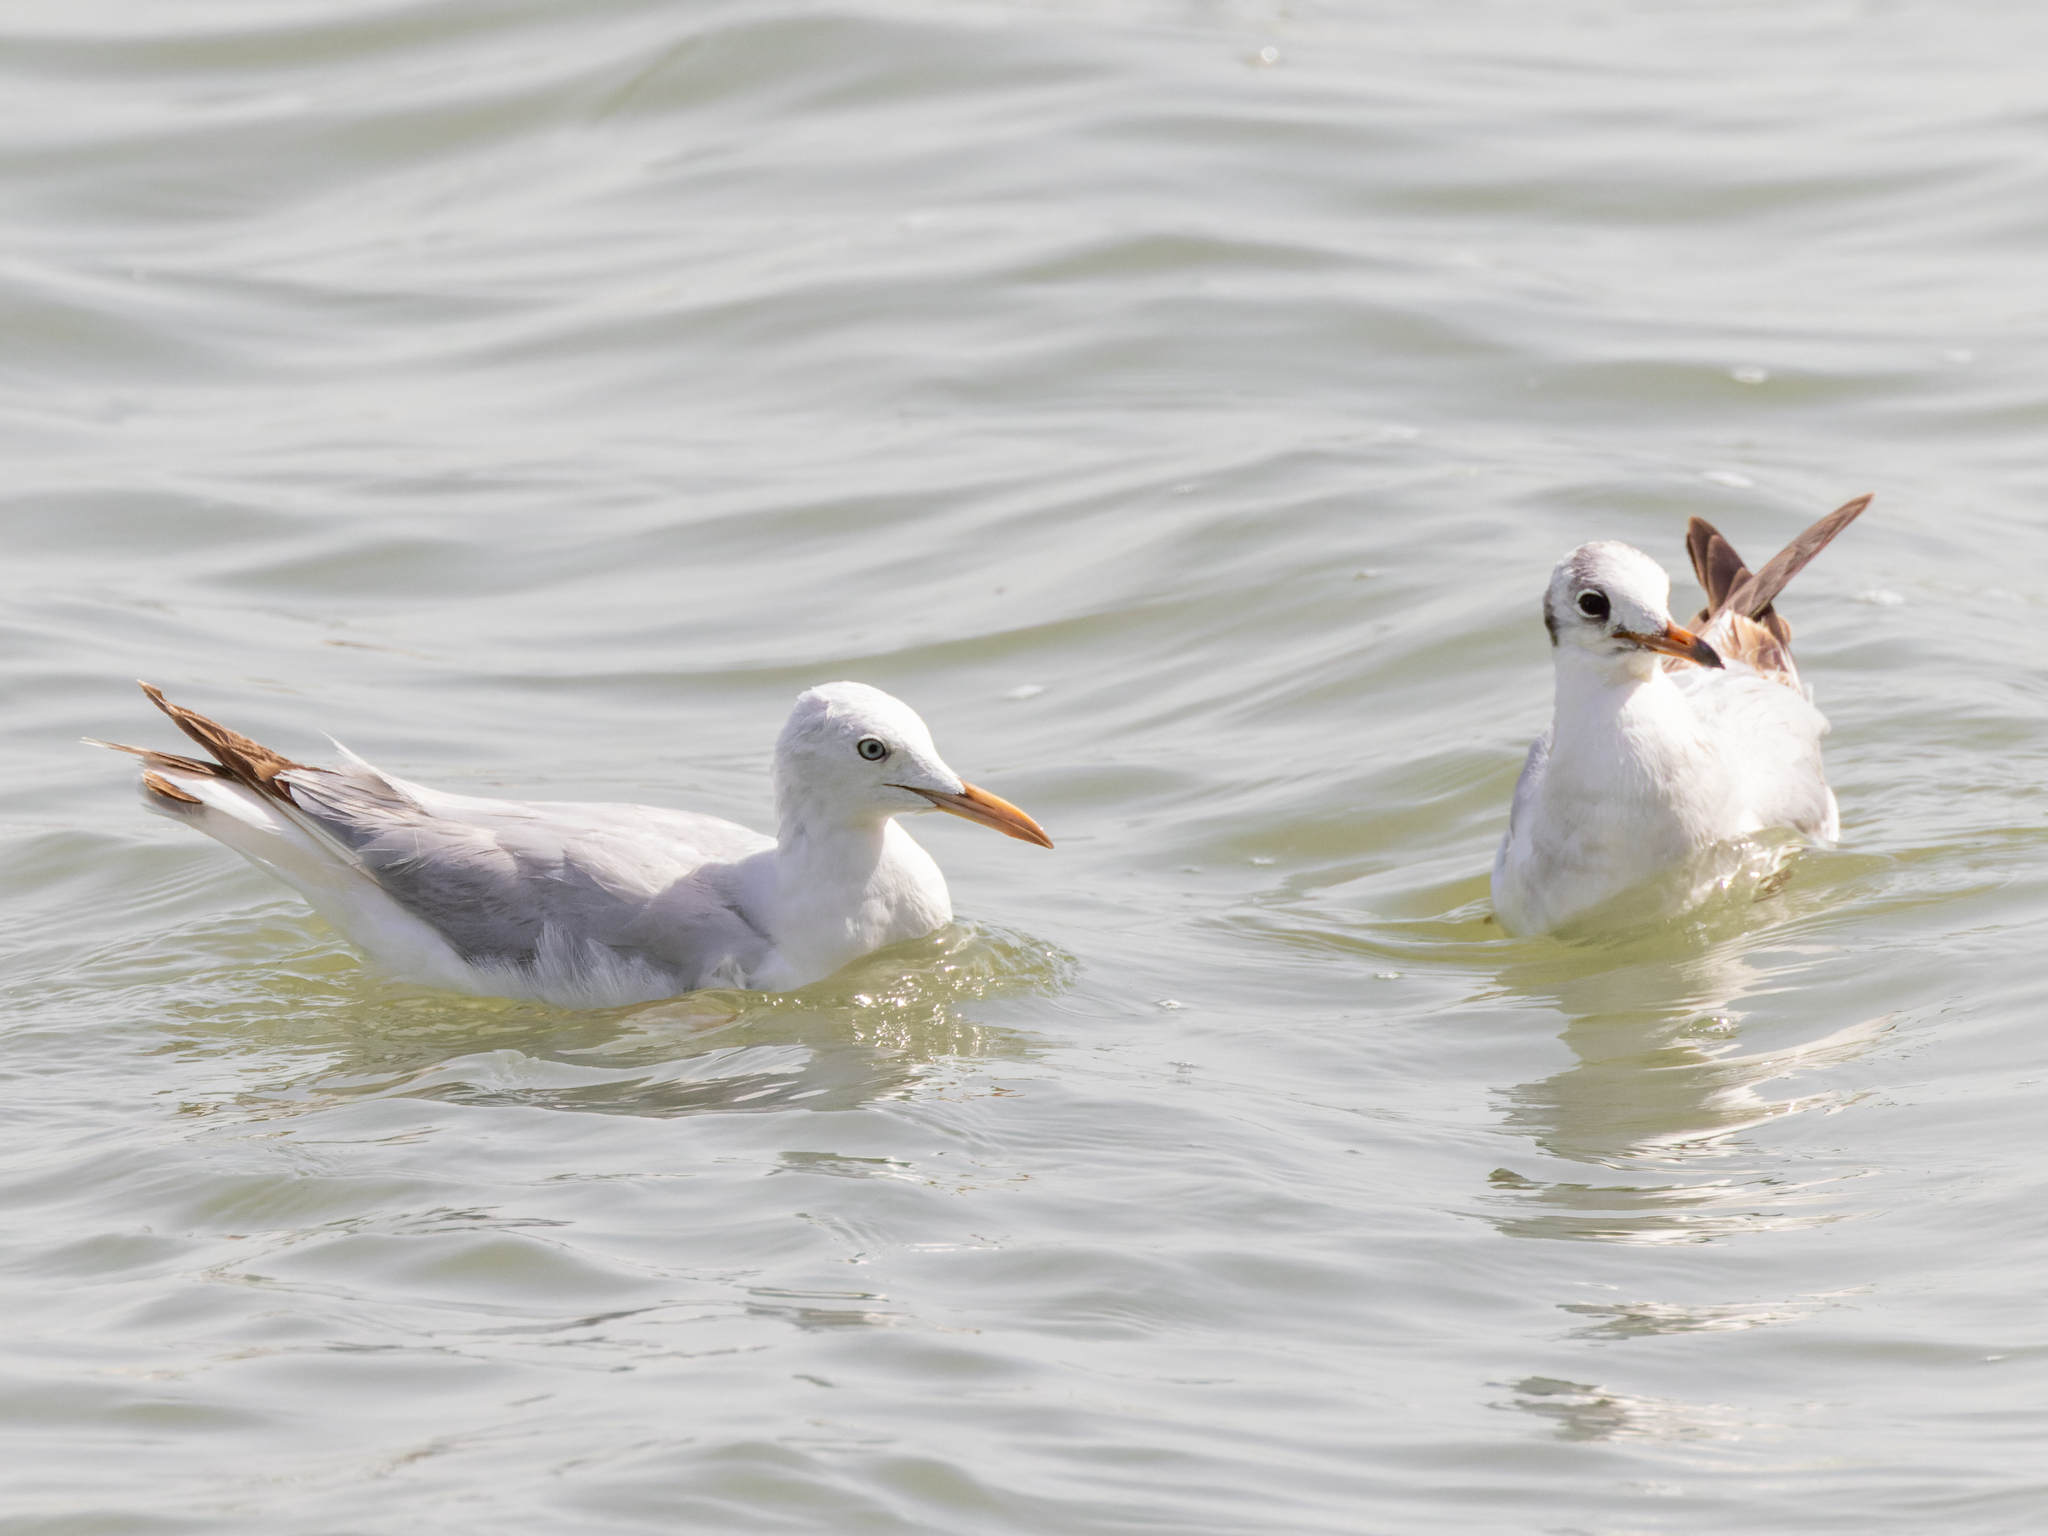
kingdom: Animalia
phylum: Chordata
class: Aves
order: Charadriiformes
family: Laridae
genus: Chroicocephalus
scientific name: Chroicocephalus genei
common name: Slender-billed gull
